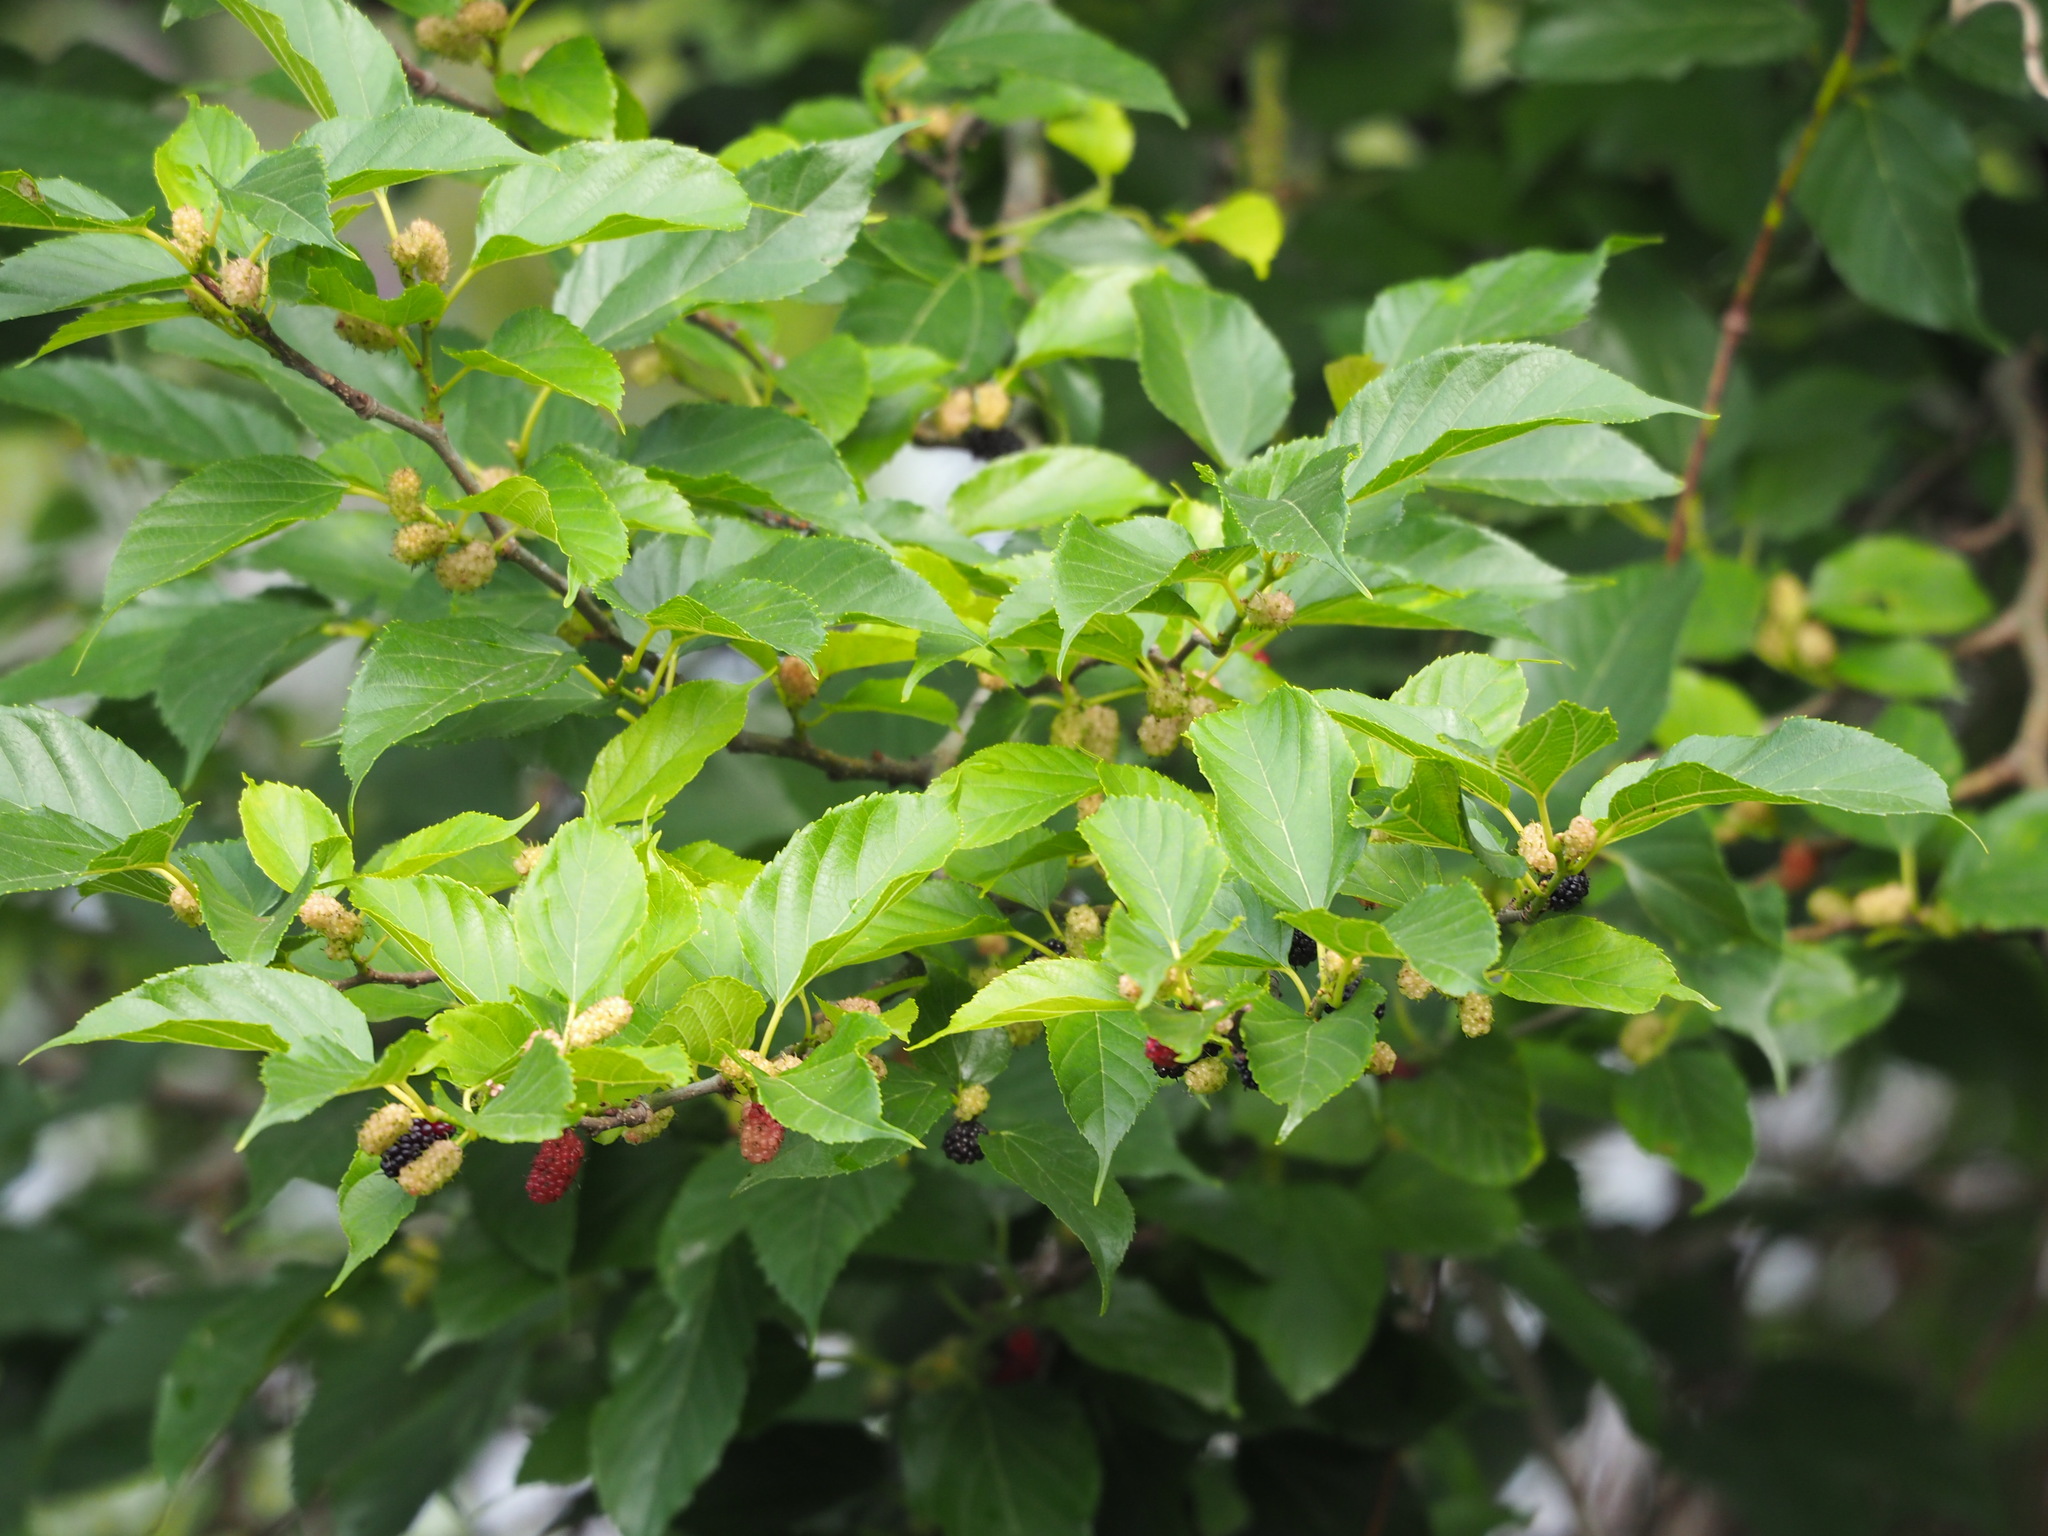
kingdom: Plantae
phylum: Tracheophyta
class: Magnoliopsida
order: Rosales
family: Moraceae
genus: Morus
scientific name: Morus indica
